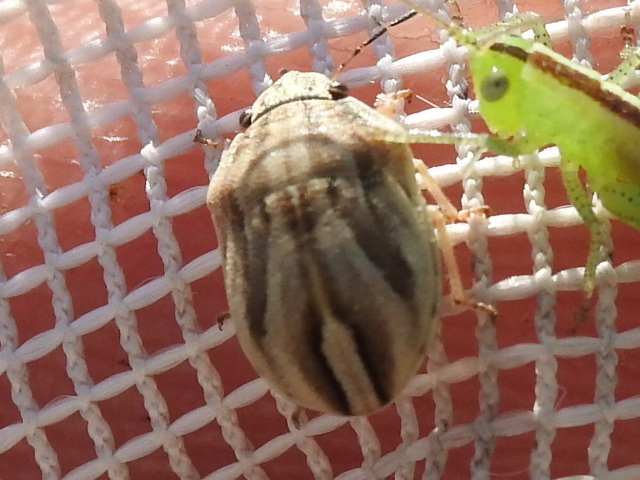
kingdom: Animalia
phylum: Arthropoda
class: Insecta
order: Hemiptera
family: Scutelleridae
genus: Homaemus
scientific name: Homaemus parvulus
